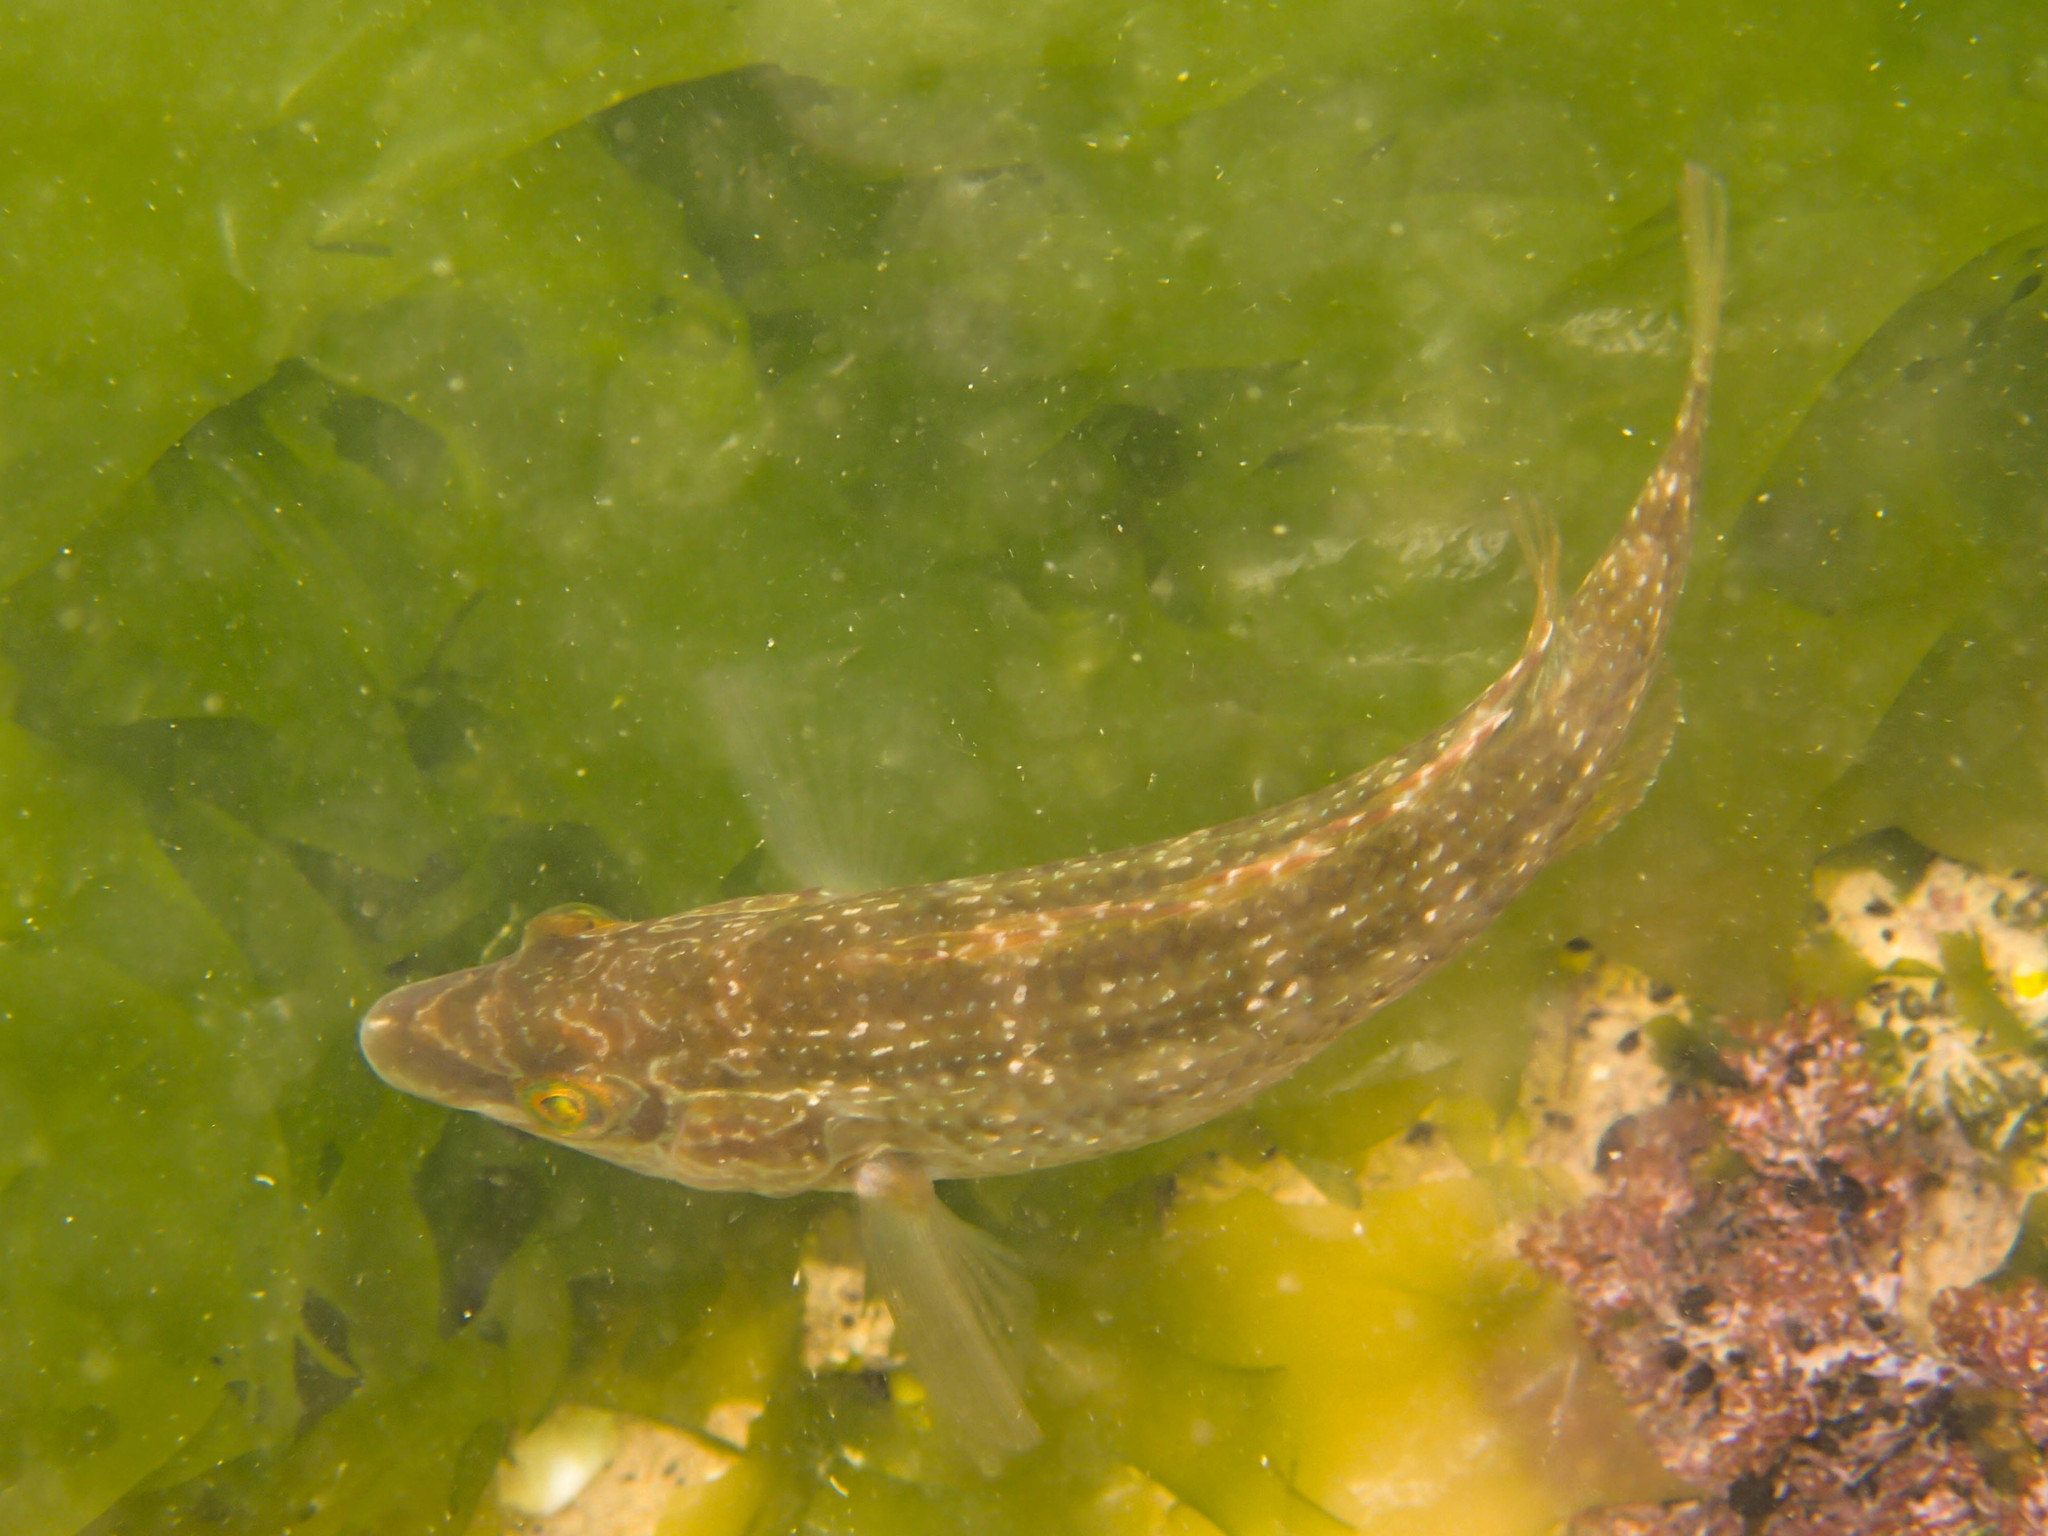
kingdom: Animalia
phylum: Chordata
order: Perciformes
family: Labridae
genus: Symphodus
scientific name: Symphodus melops
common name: Corkwing
